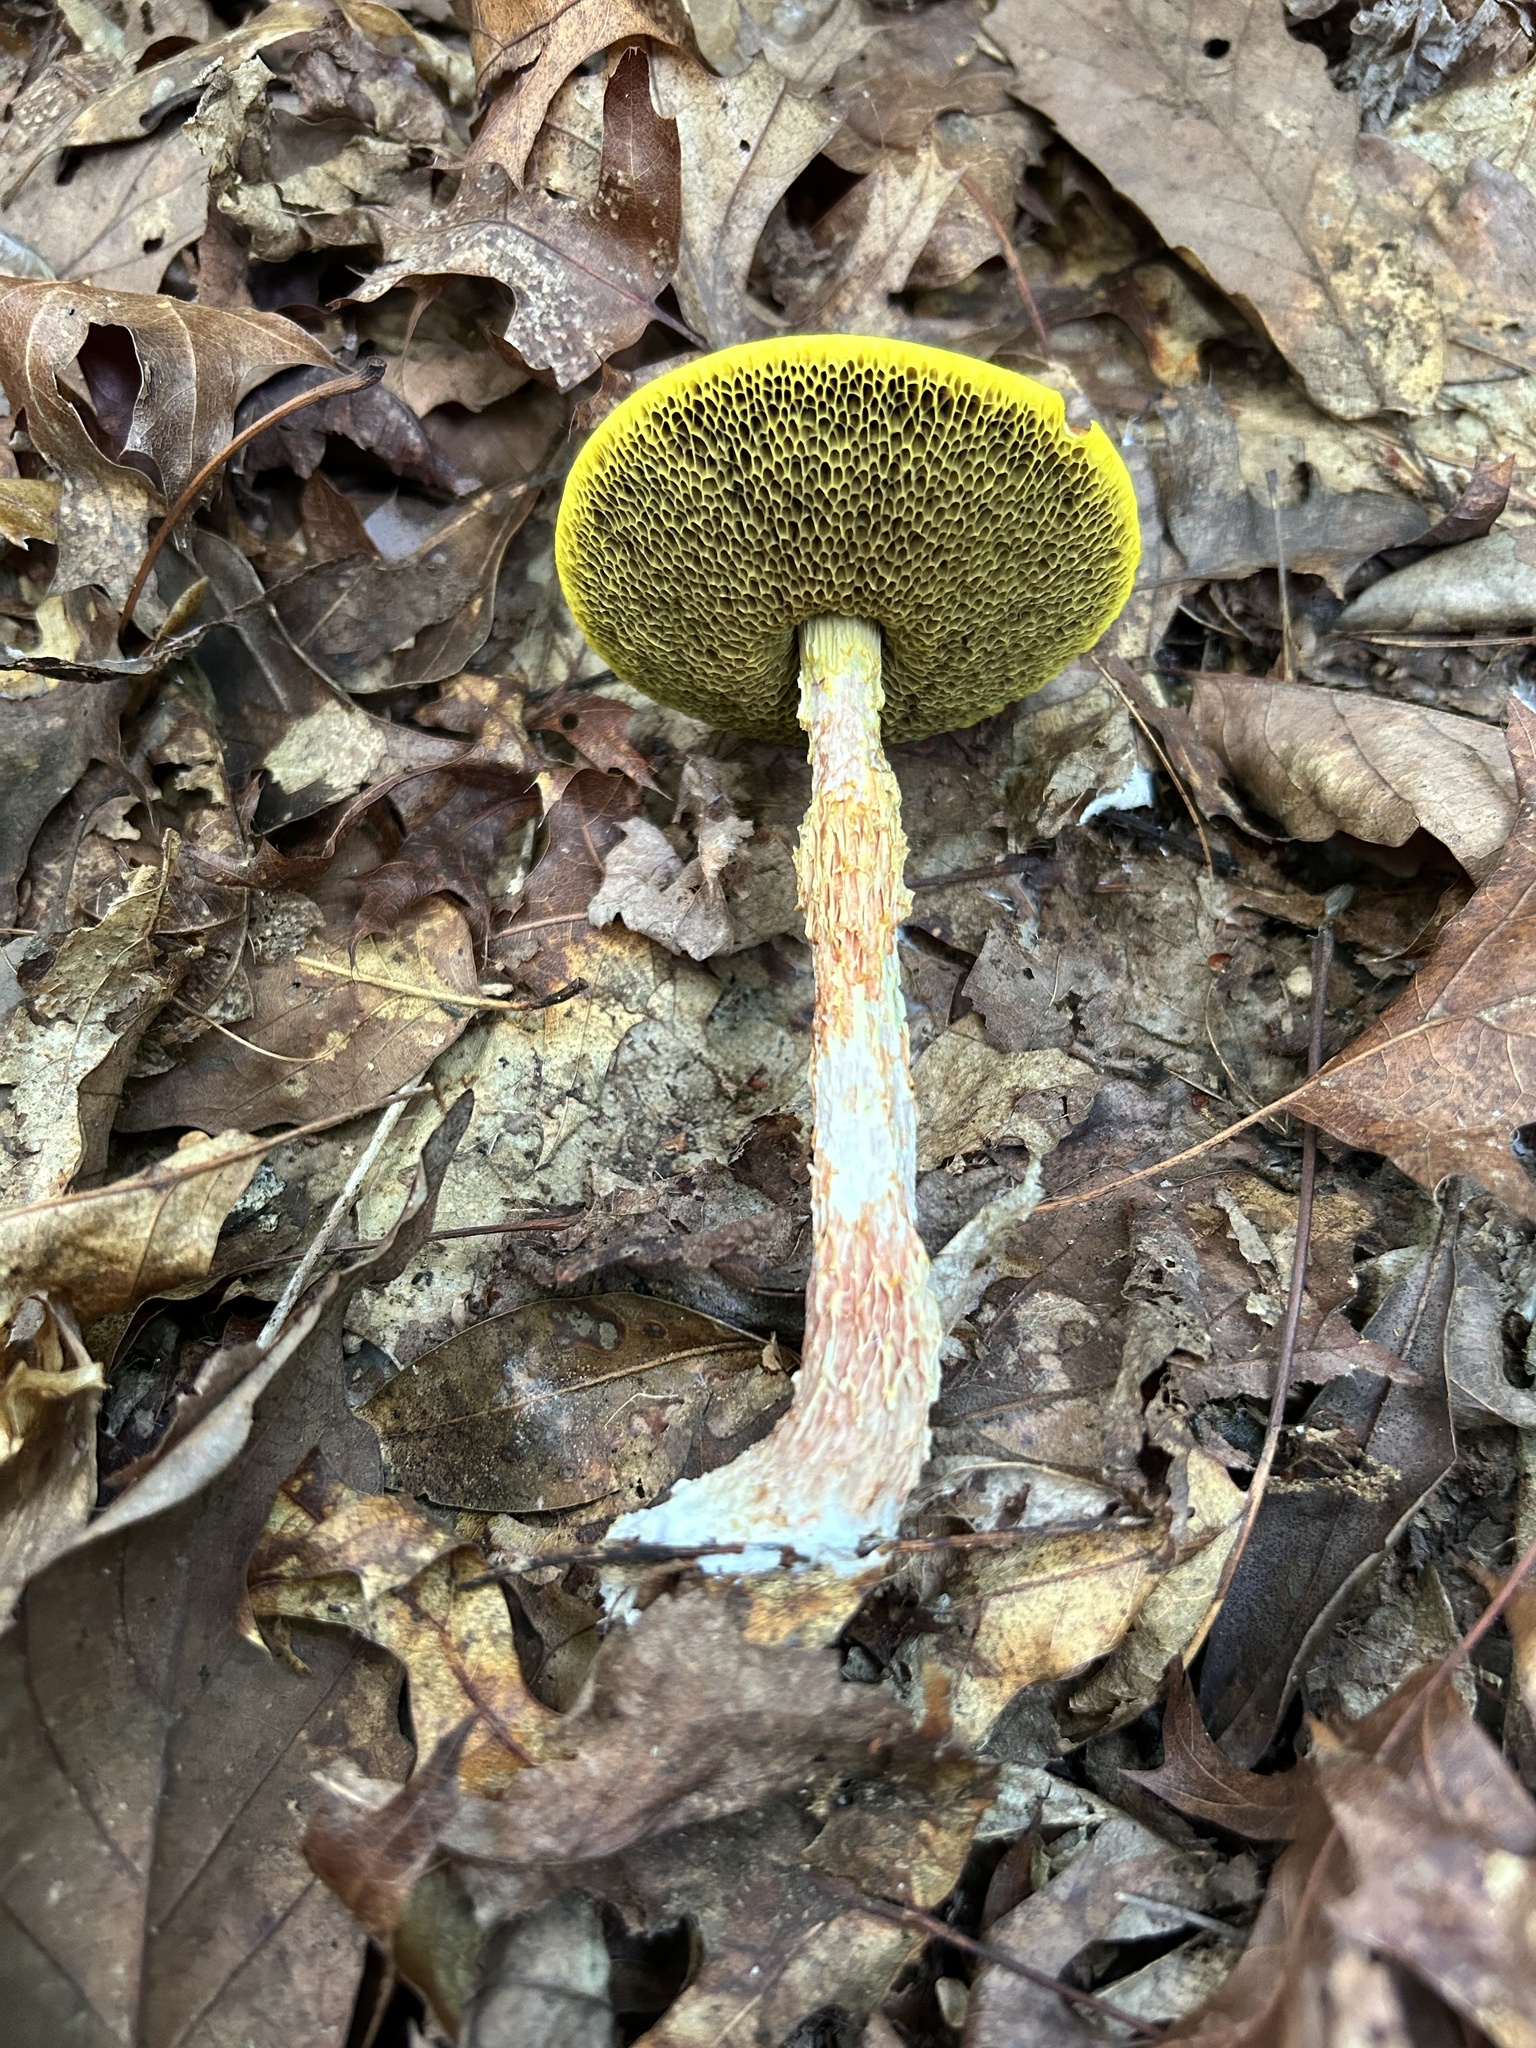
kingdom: Fungi
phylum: Basidiomycota
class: Agaricomycetes
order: Boletales
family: Boletaceae
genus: Aureoboletus
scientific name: Aureoboletus betula
